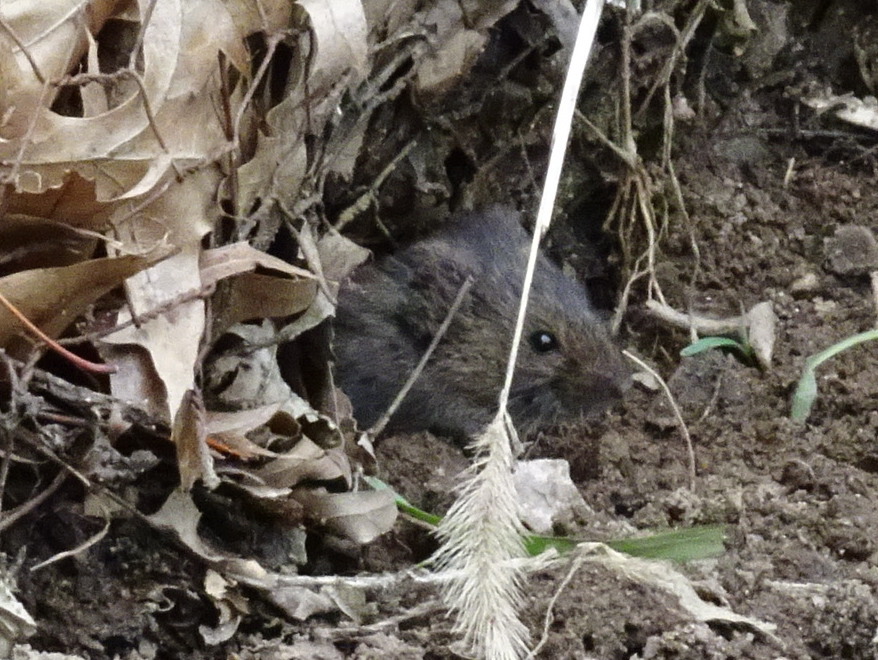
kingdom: Animalia
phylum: Chordata
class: Mammalia
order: Rodentia
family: Cricetidae
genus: Microtus
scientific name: Microtus pennsylvanicus
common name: Meadow vole
